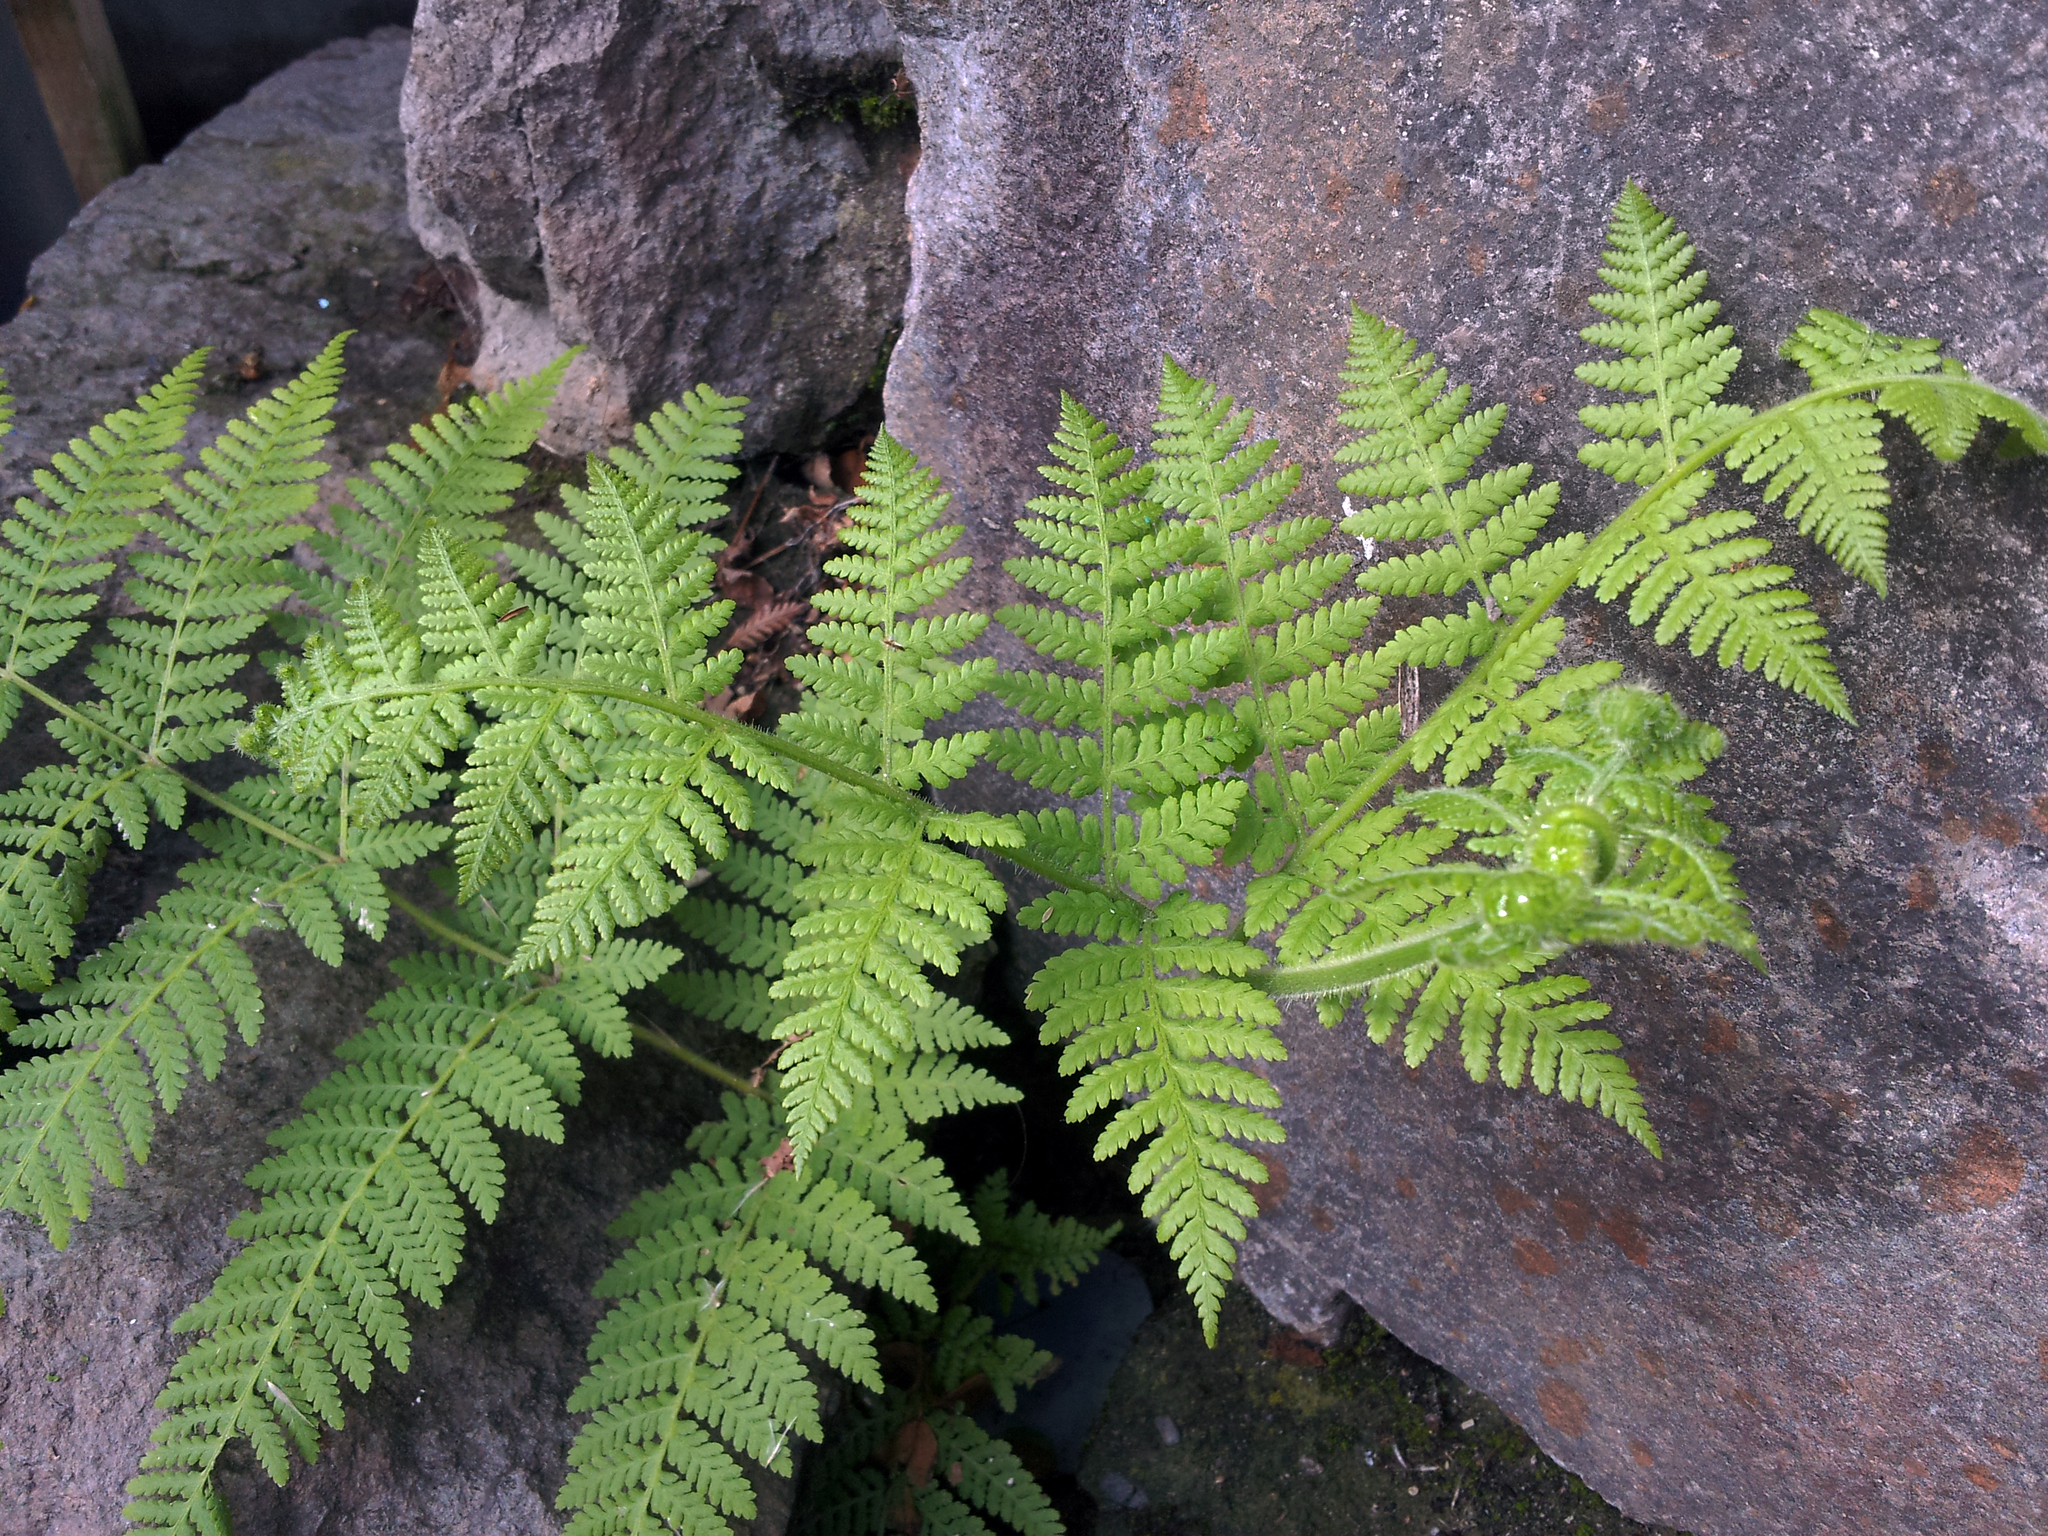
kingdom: Plantae
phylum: Tracheophyta
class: Polypodiopsida
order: Polypodiales
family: Dennstaedtiaceae
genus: Hypolepis
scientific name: Hypolepis dicksonioides
